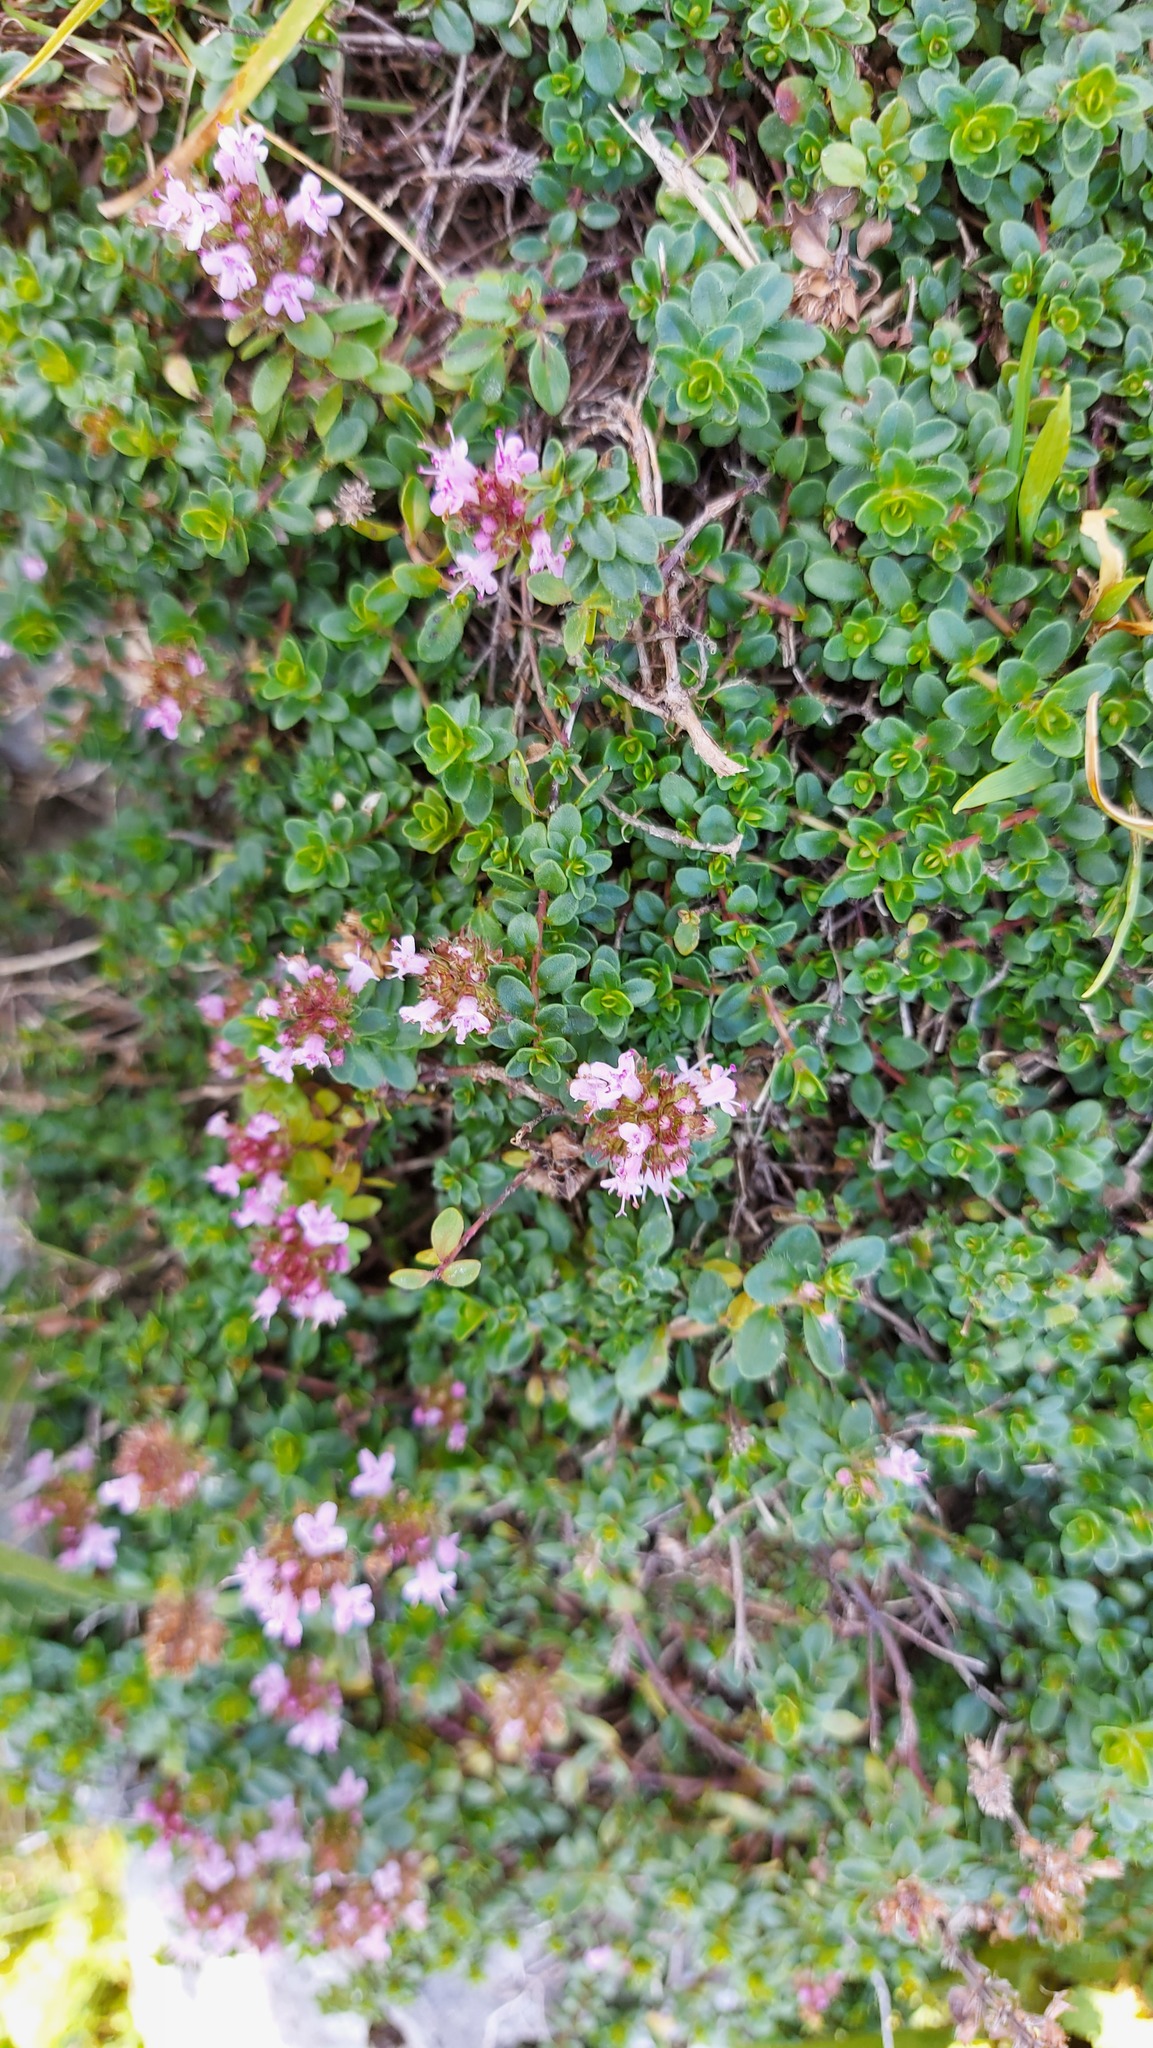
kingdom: Plantae
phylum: Tracheophyta
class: Magnoliopsida
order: Lamiales
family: Lamiaceae
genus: Thymus
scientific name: Thymus praecox
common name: Wild thyme
